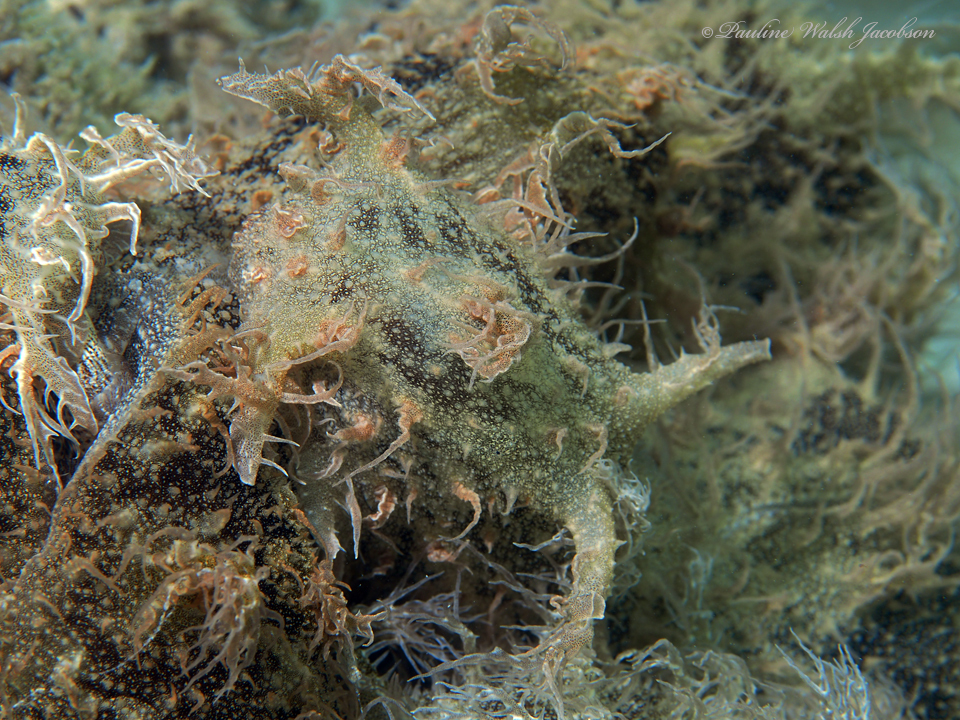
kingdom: Animalia
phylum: Mollusca
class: Gastropoda
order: Aplysiida
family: Aplysiidae
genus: Bursatella
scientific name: Bursatella leachii
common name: Shaggy sea hare
